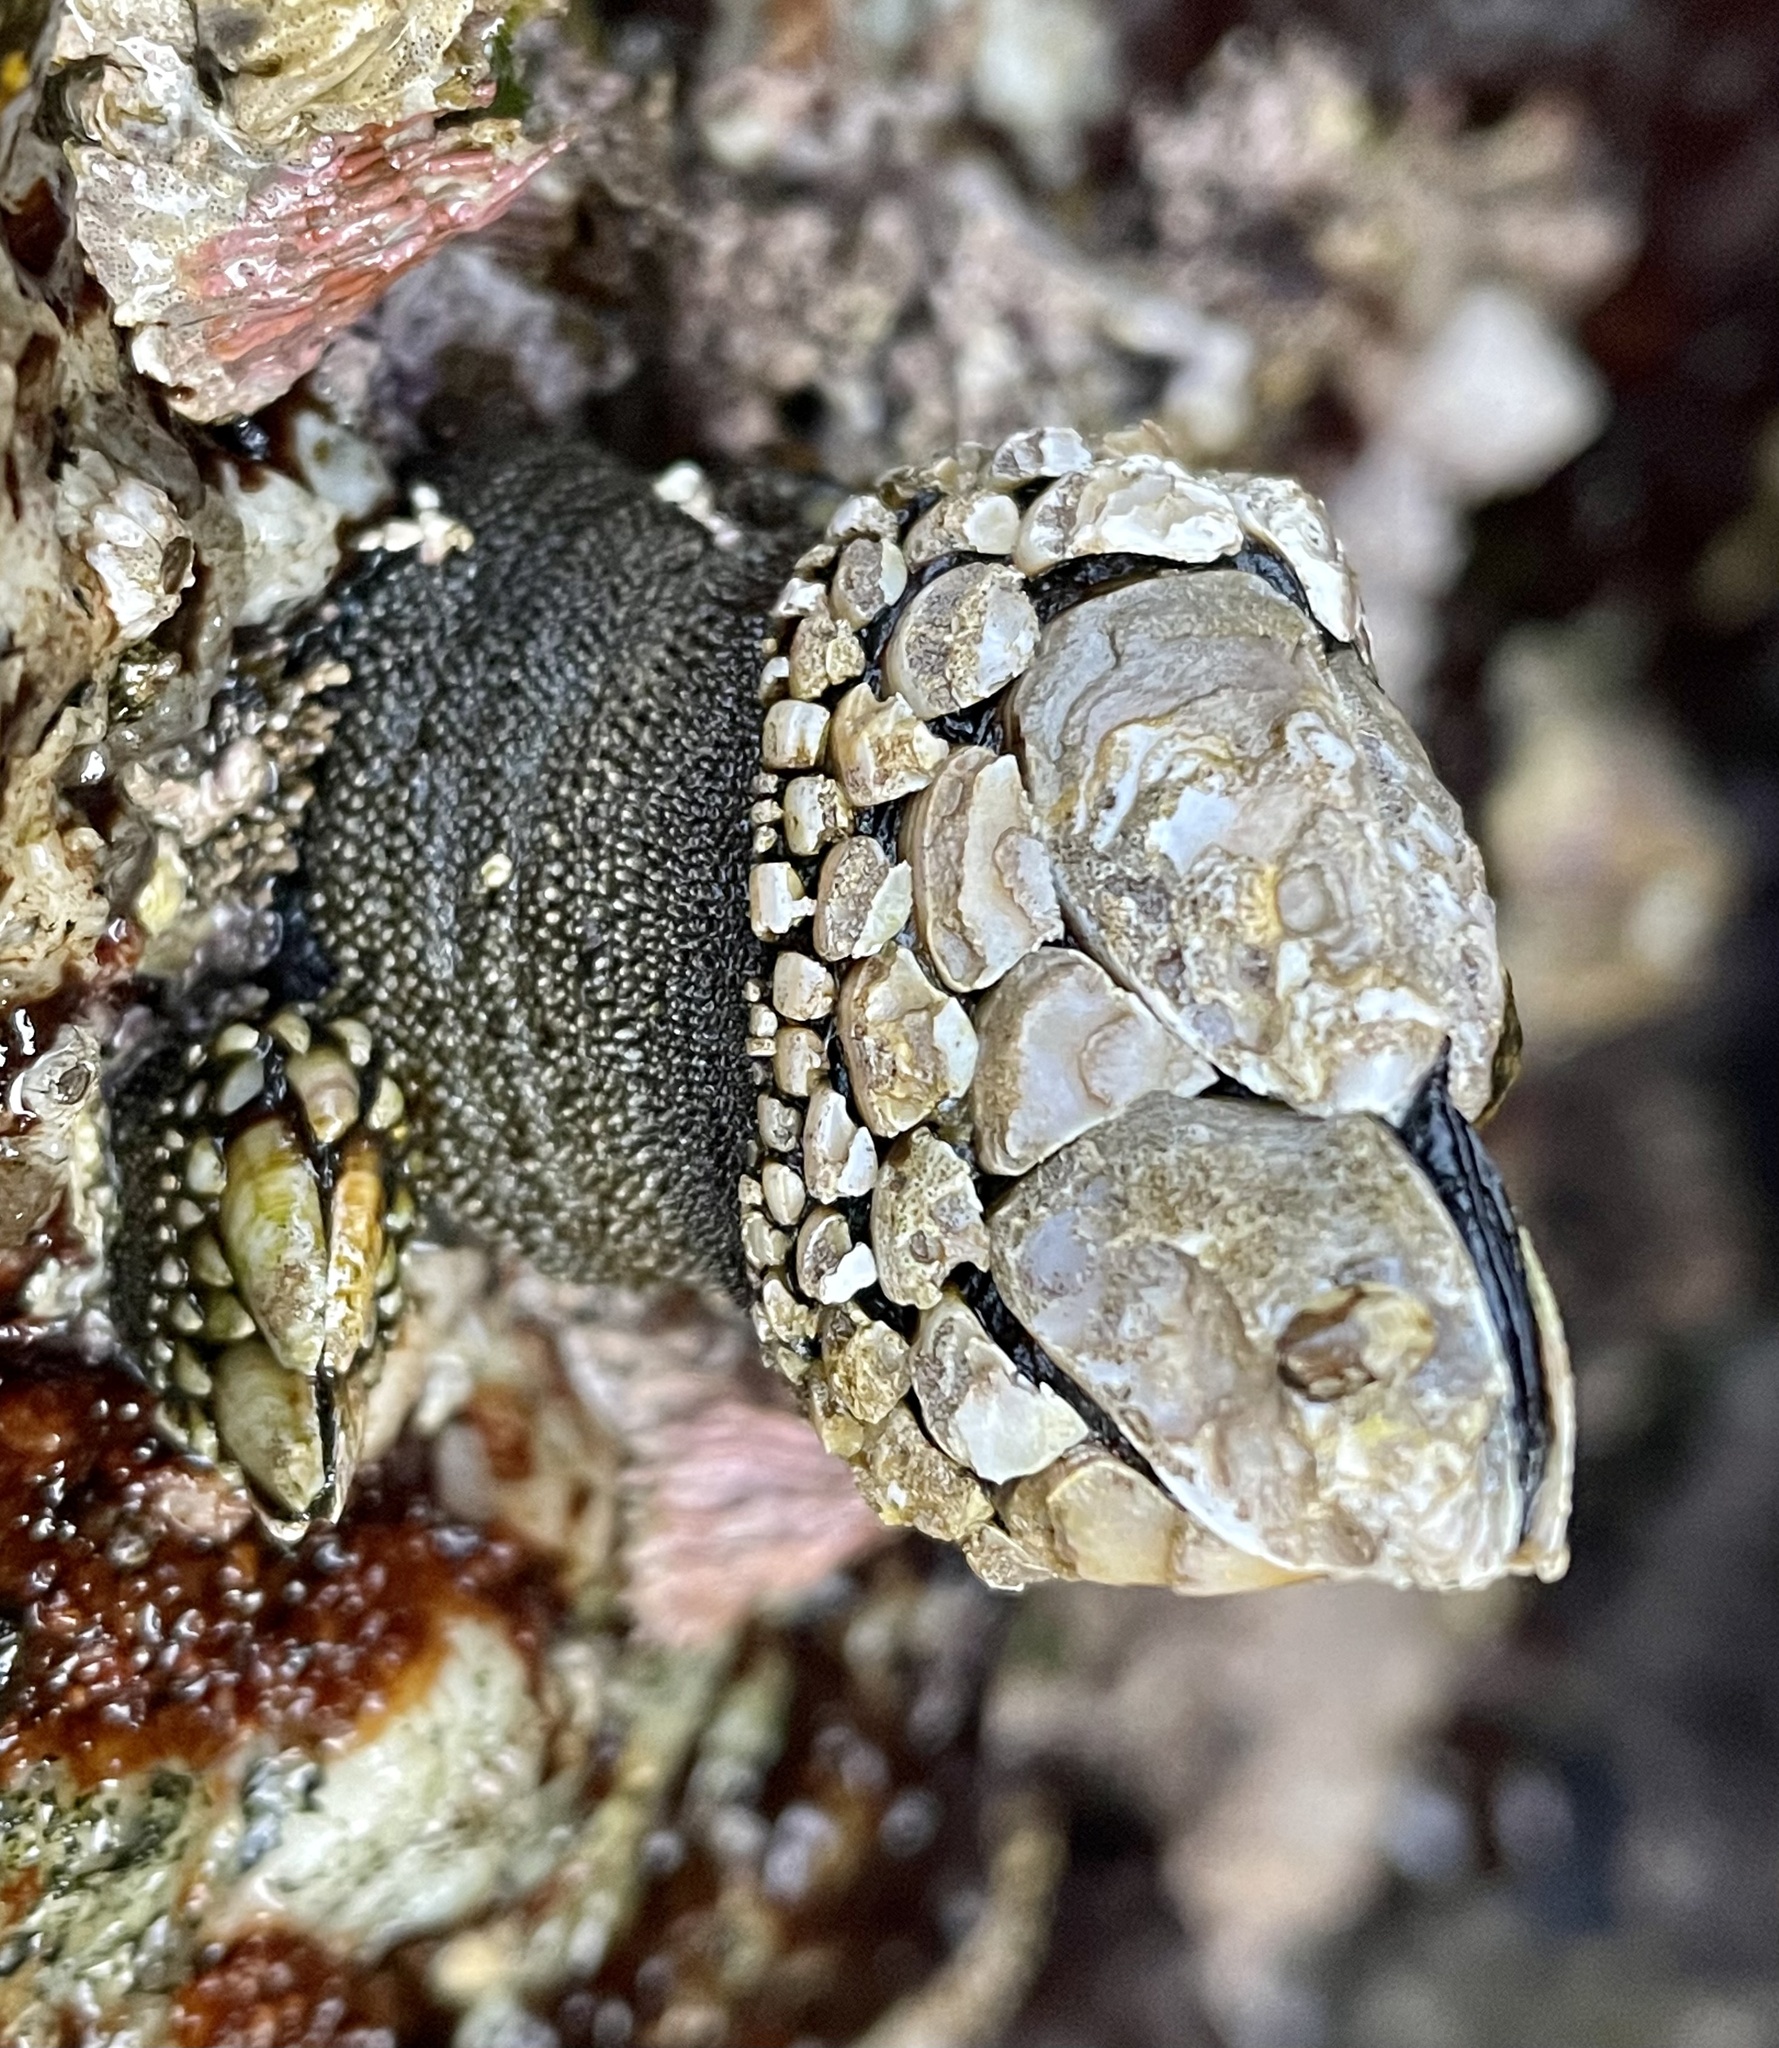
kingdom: Animalia
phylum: Arthropoda
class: Maxillopoda
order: Pedunculata
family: Pollicipedidae
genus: Pollicipes
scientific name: Pollicipes polymerus
